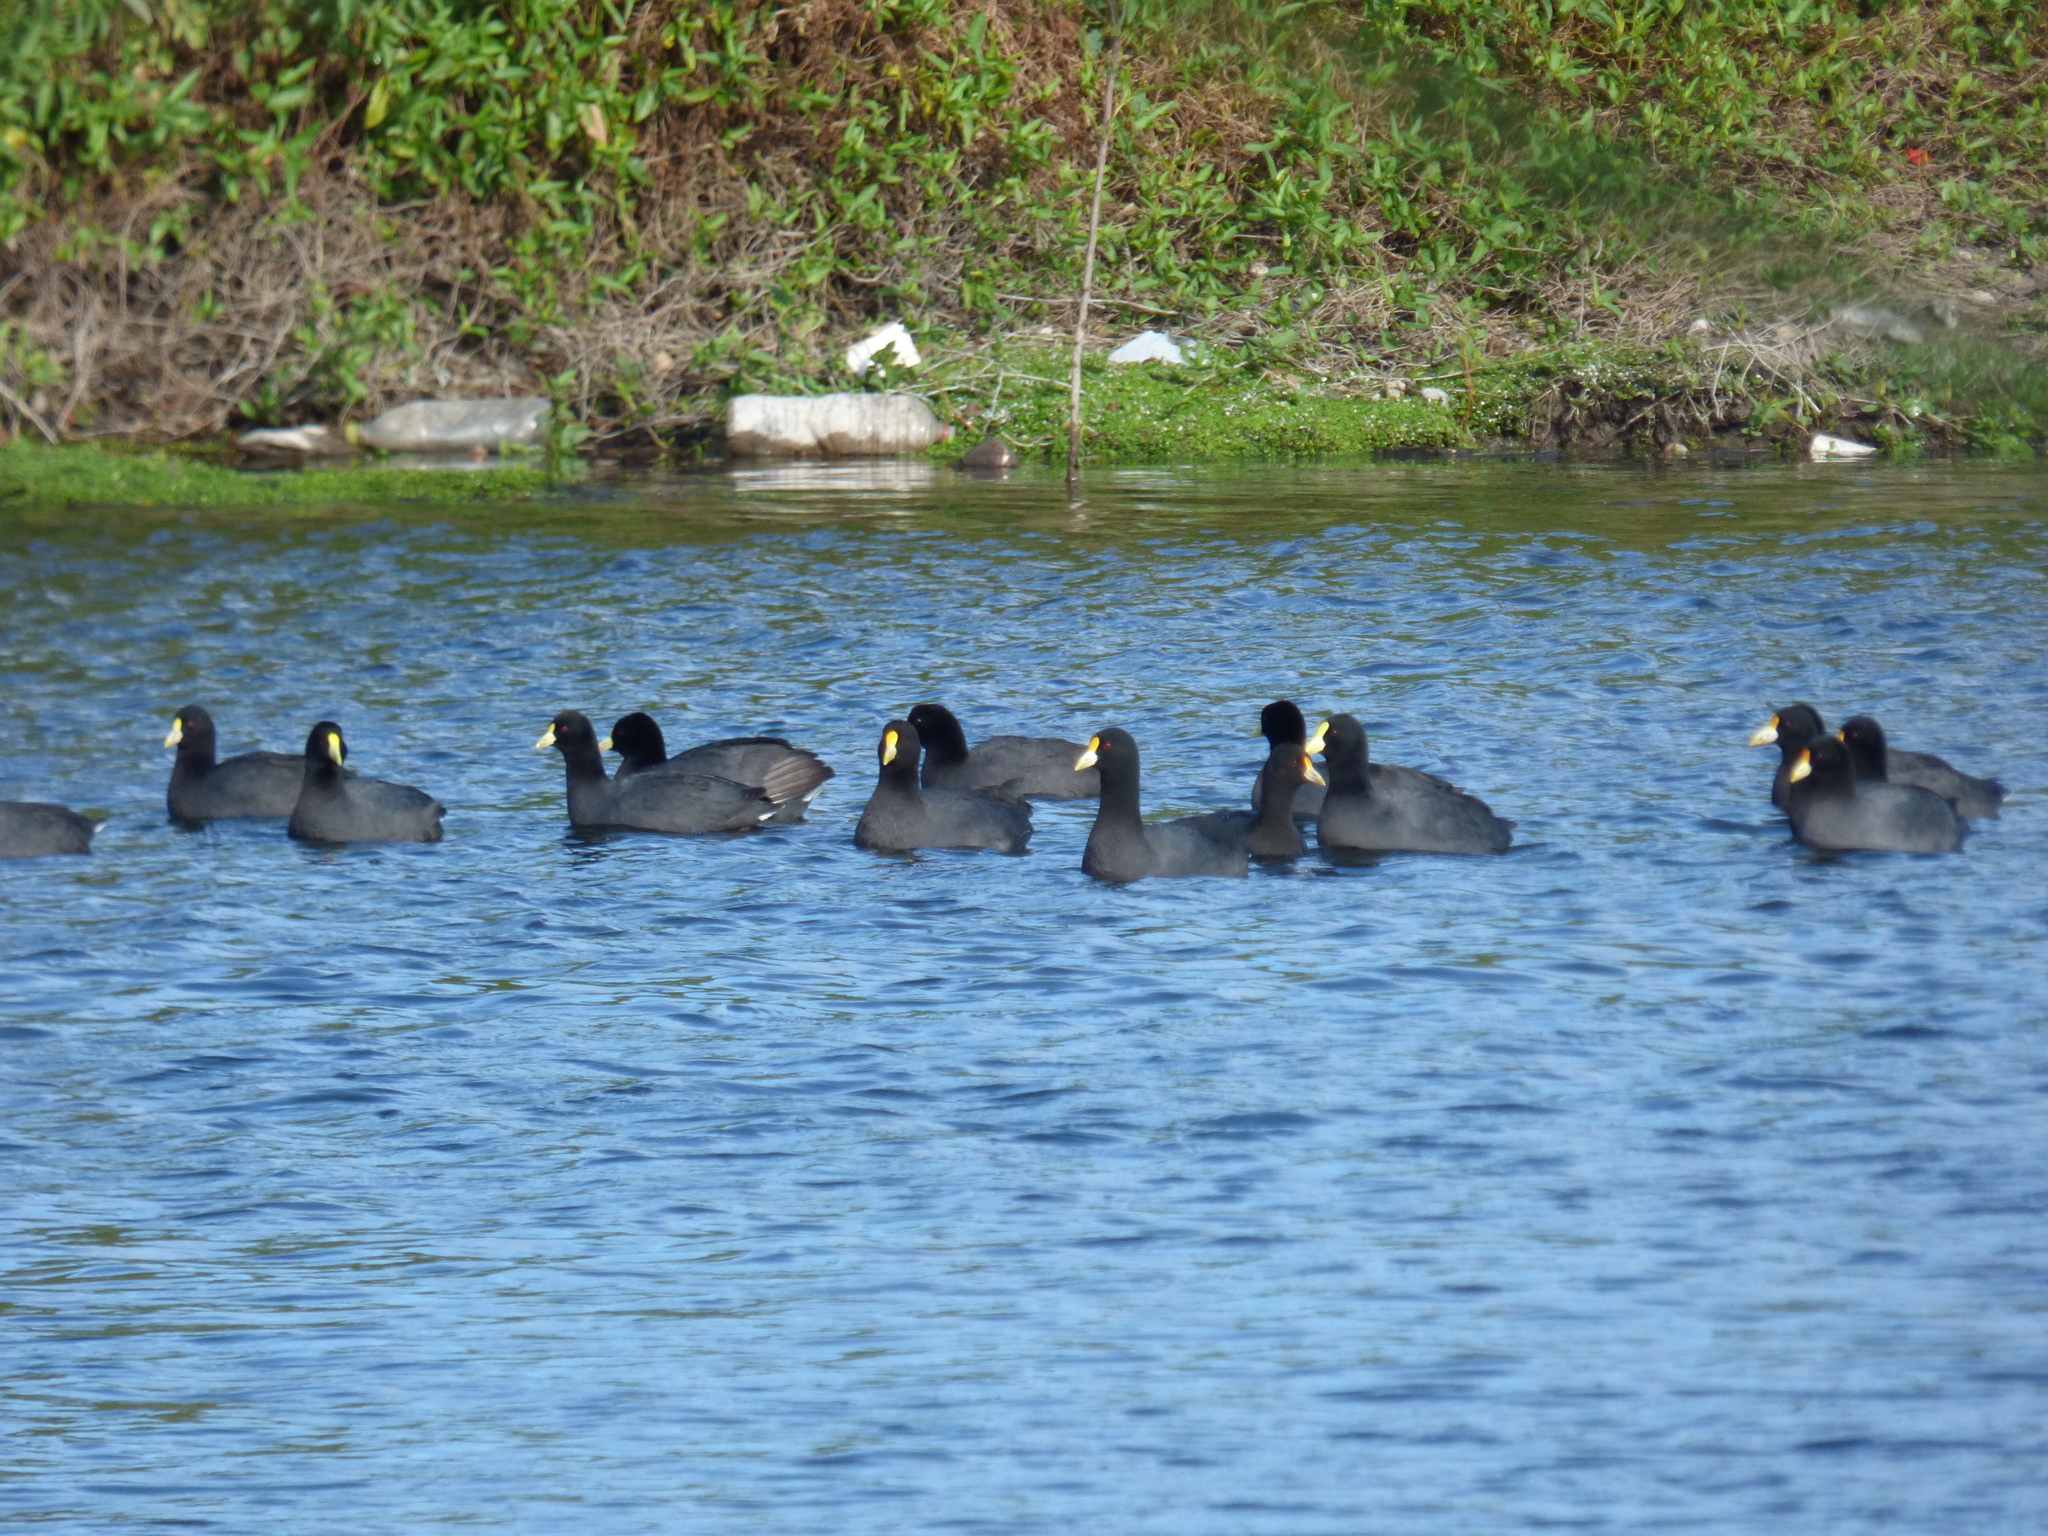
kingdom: Animalia
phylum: Chordata
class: Aves
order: Gruiformes
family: Rallidae
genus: Fulica
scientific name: Fulica leucoptera
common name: White-winged coot
